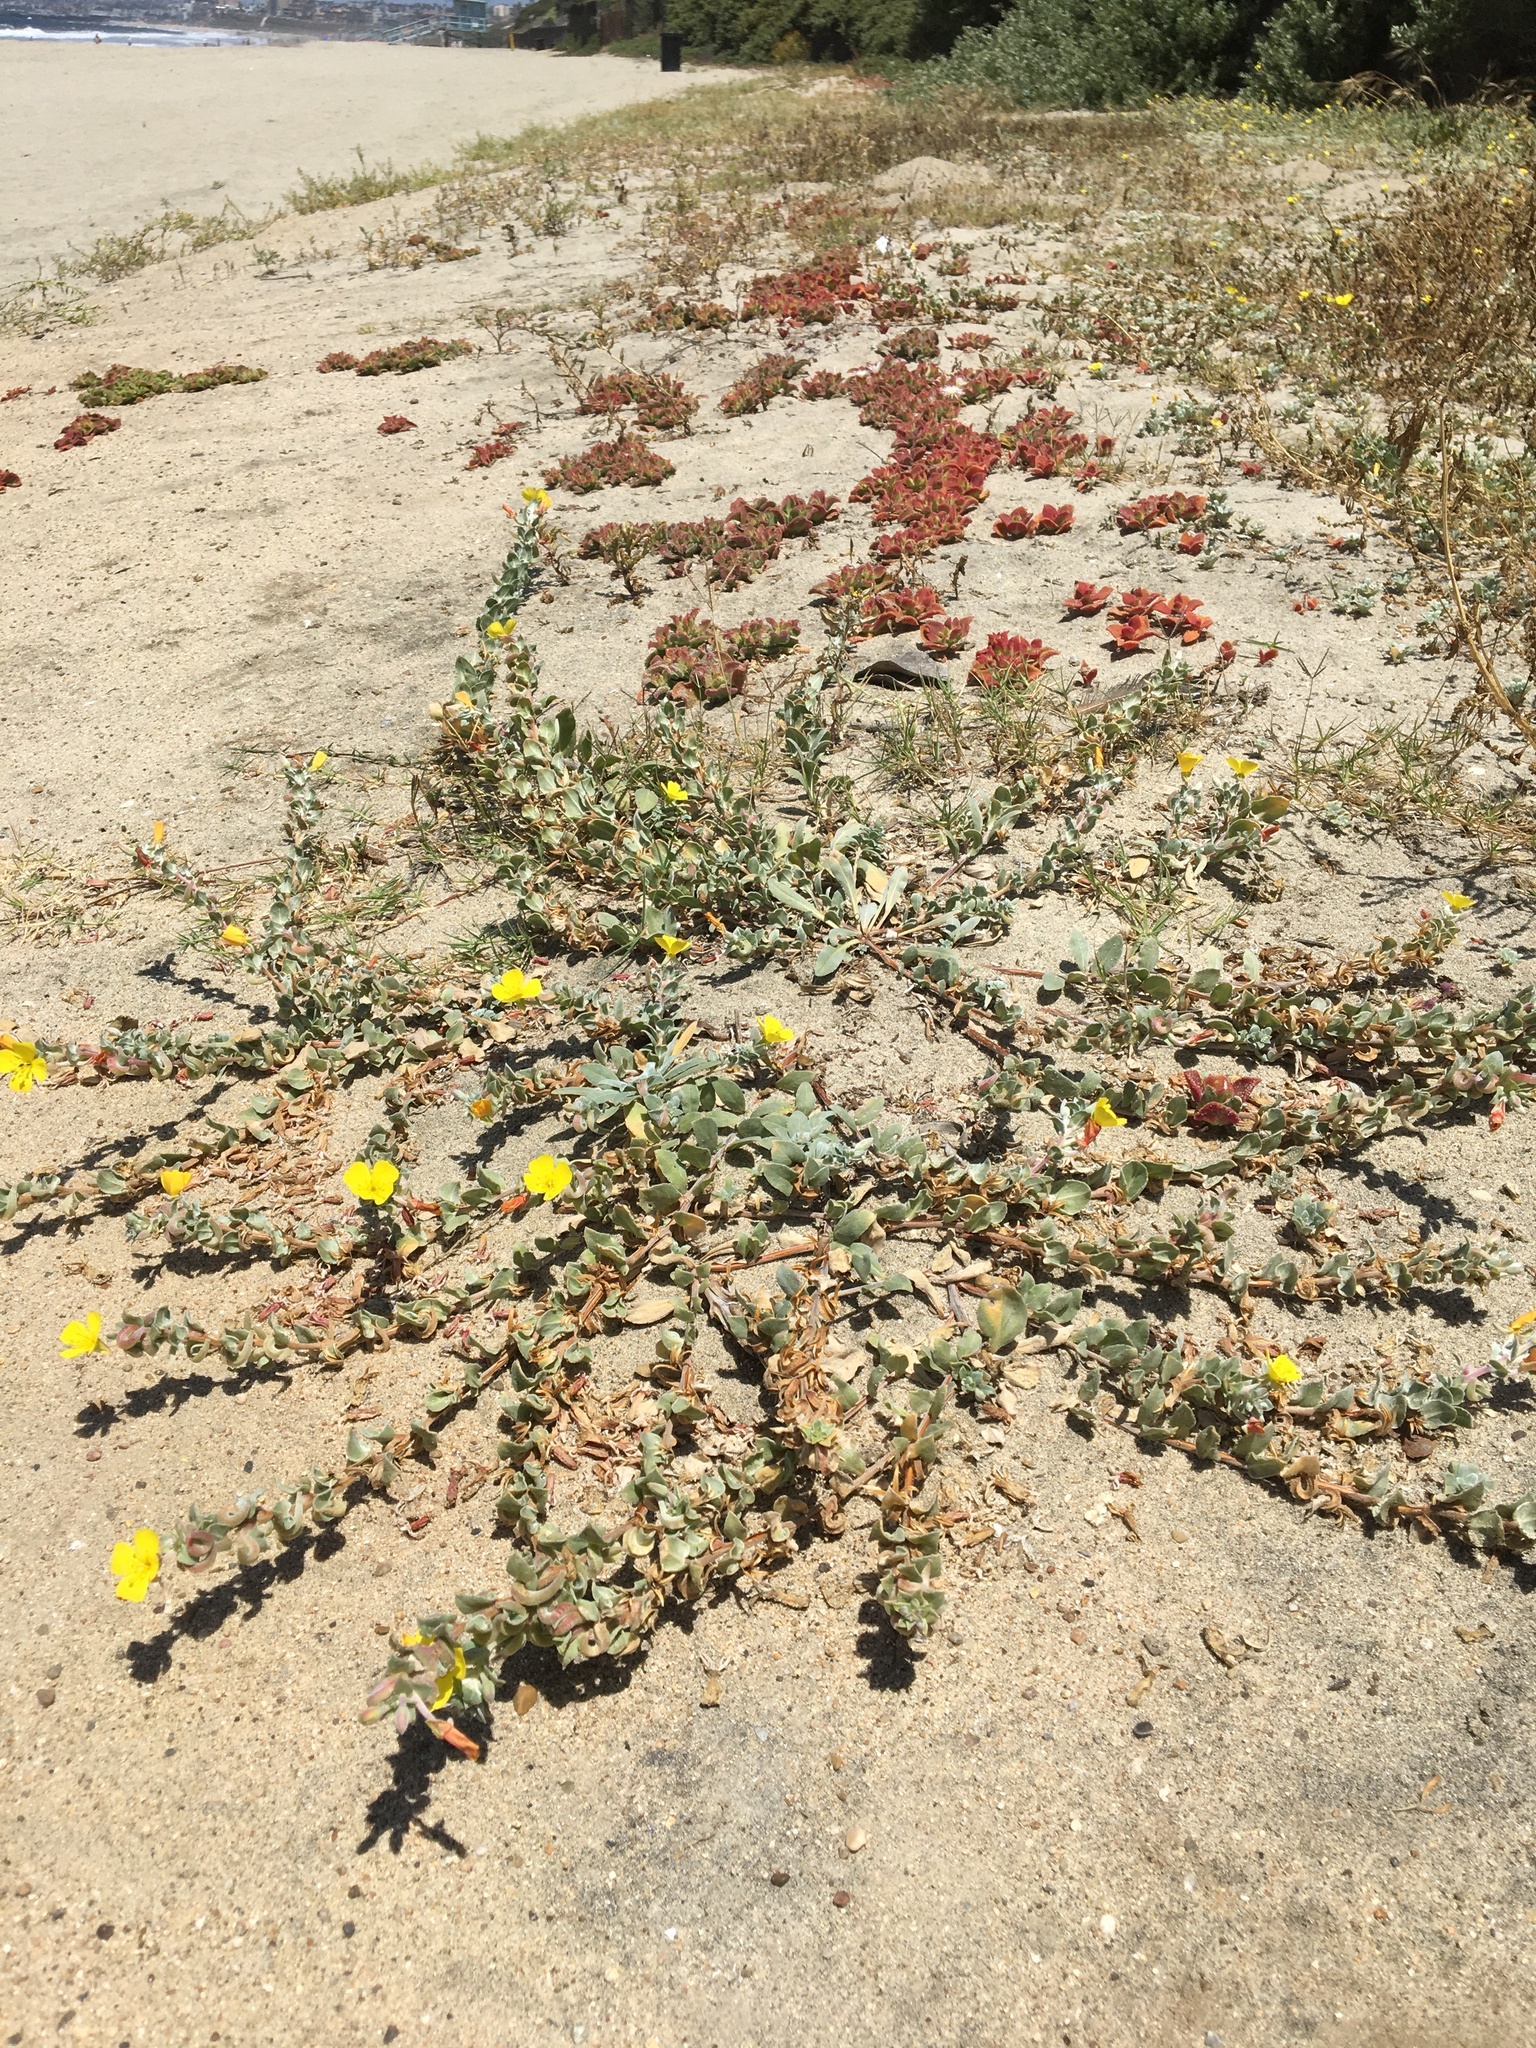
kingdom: Plantae
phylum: Tracheophyta
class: Magnoliopsida
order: Myrtales
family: Onagraceae
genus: Camissoniopsis
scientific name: Camissoniopsis cheiranthifolia
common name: Beach suncup
